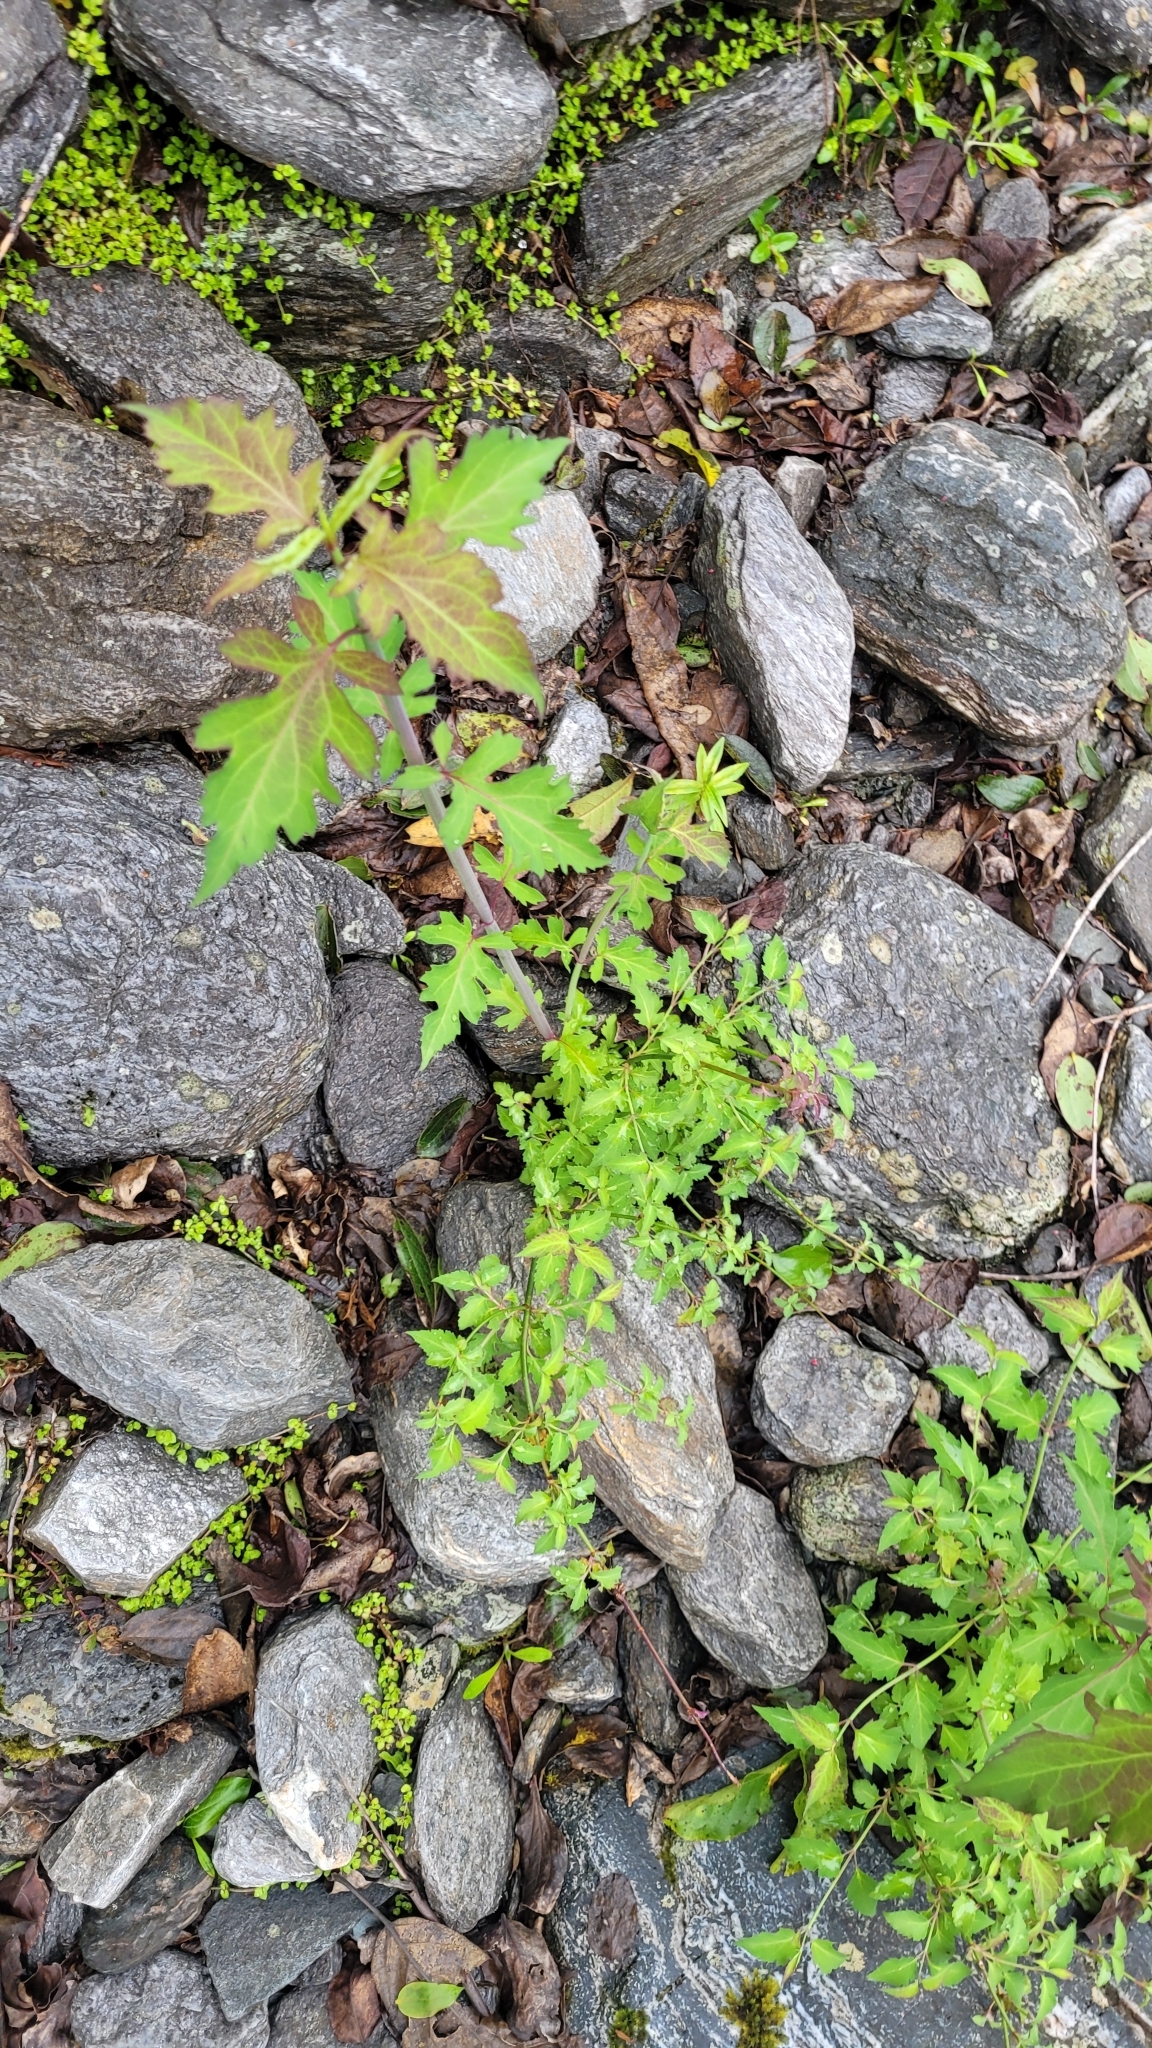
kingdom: Plantae
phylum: Tracheophyta
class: Magnoliopsida
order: Dipsacales
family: Caprifoliaceae
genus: Leycesteria
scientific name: Leycesteria formosa
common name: Himalayan honeysuckle
